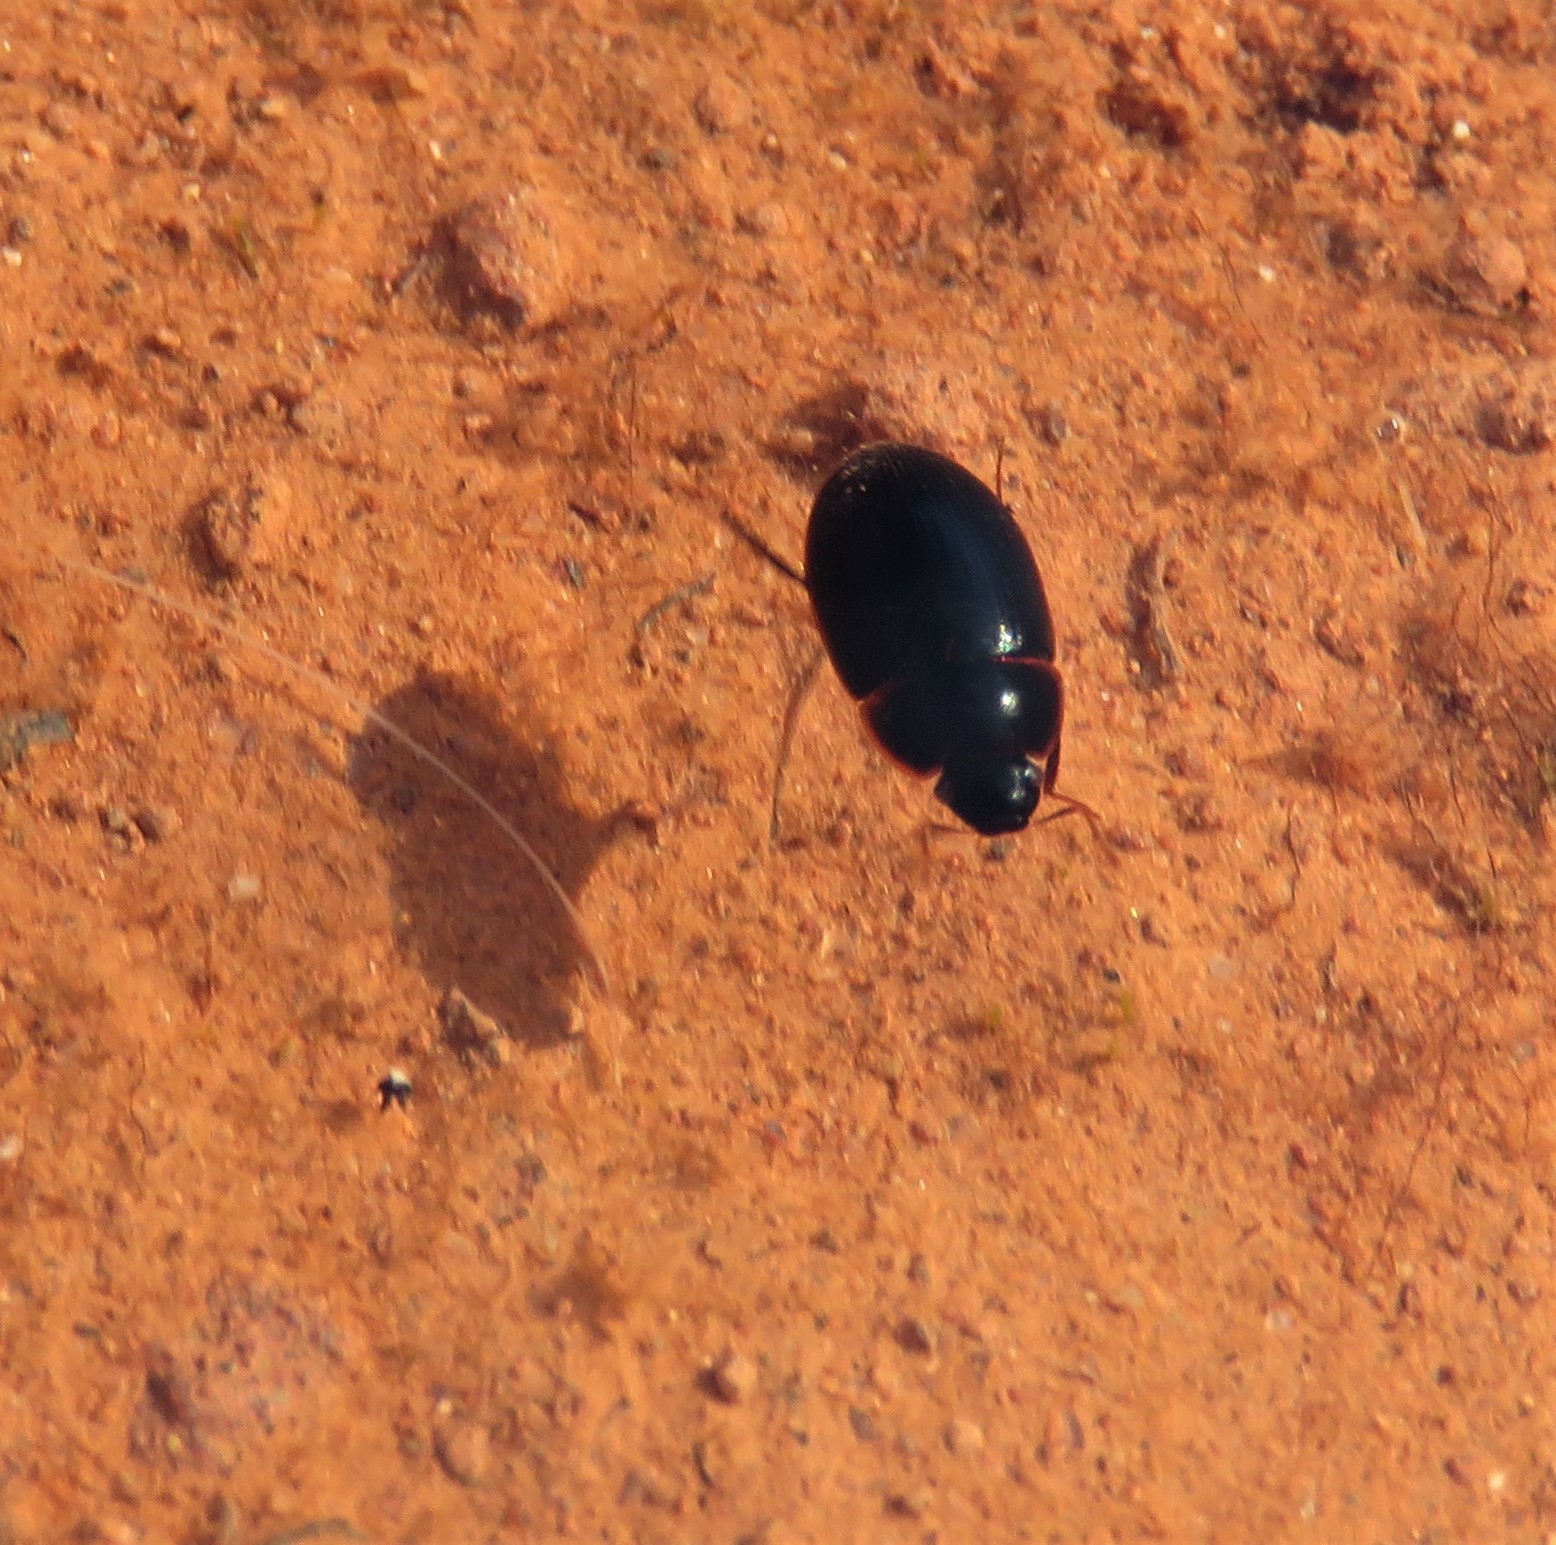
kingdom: Animalia
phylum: Arthropoda
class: Insecta
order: Coleoptera
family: Hydrophilidae
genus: Cymbiodyta
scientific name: Cymbiodyta bifida
